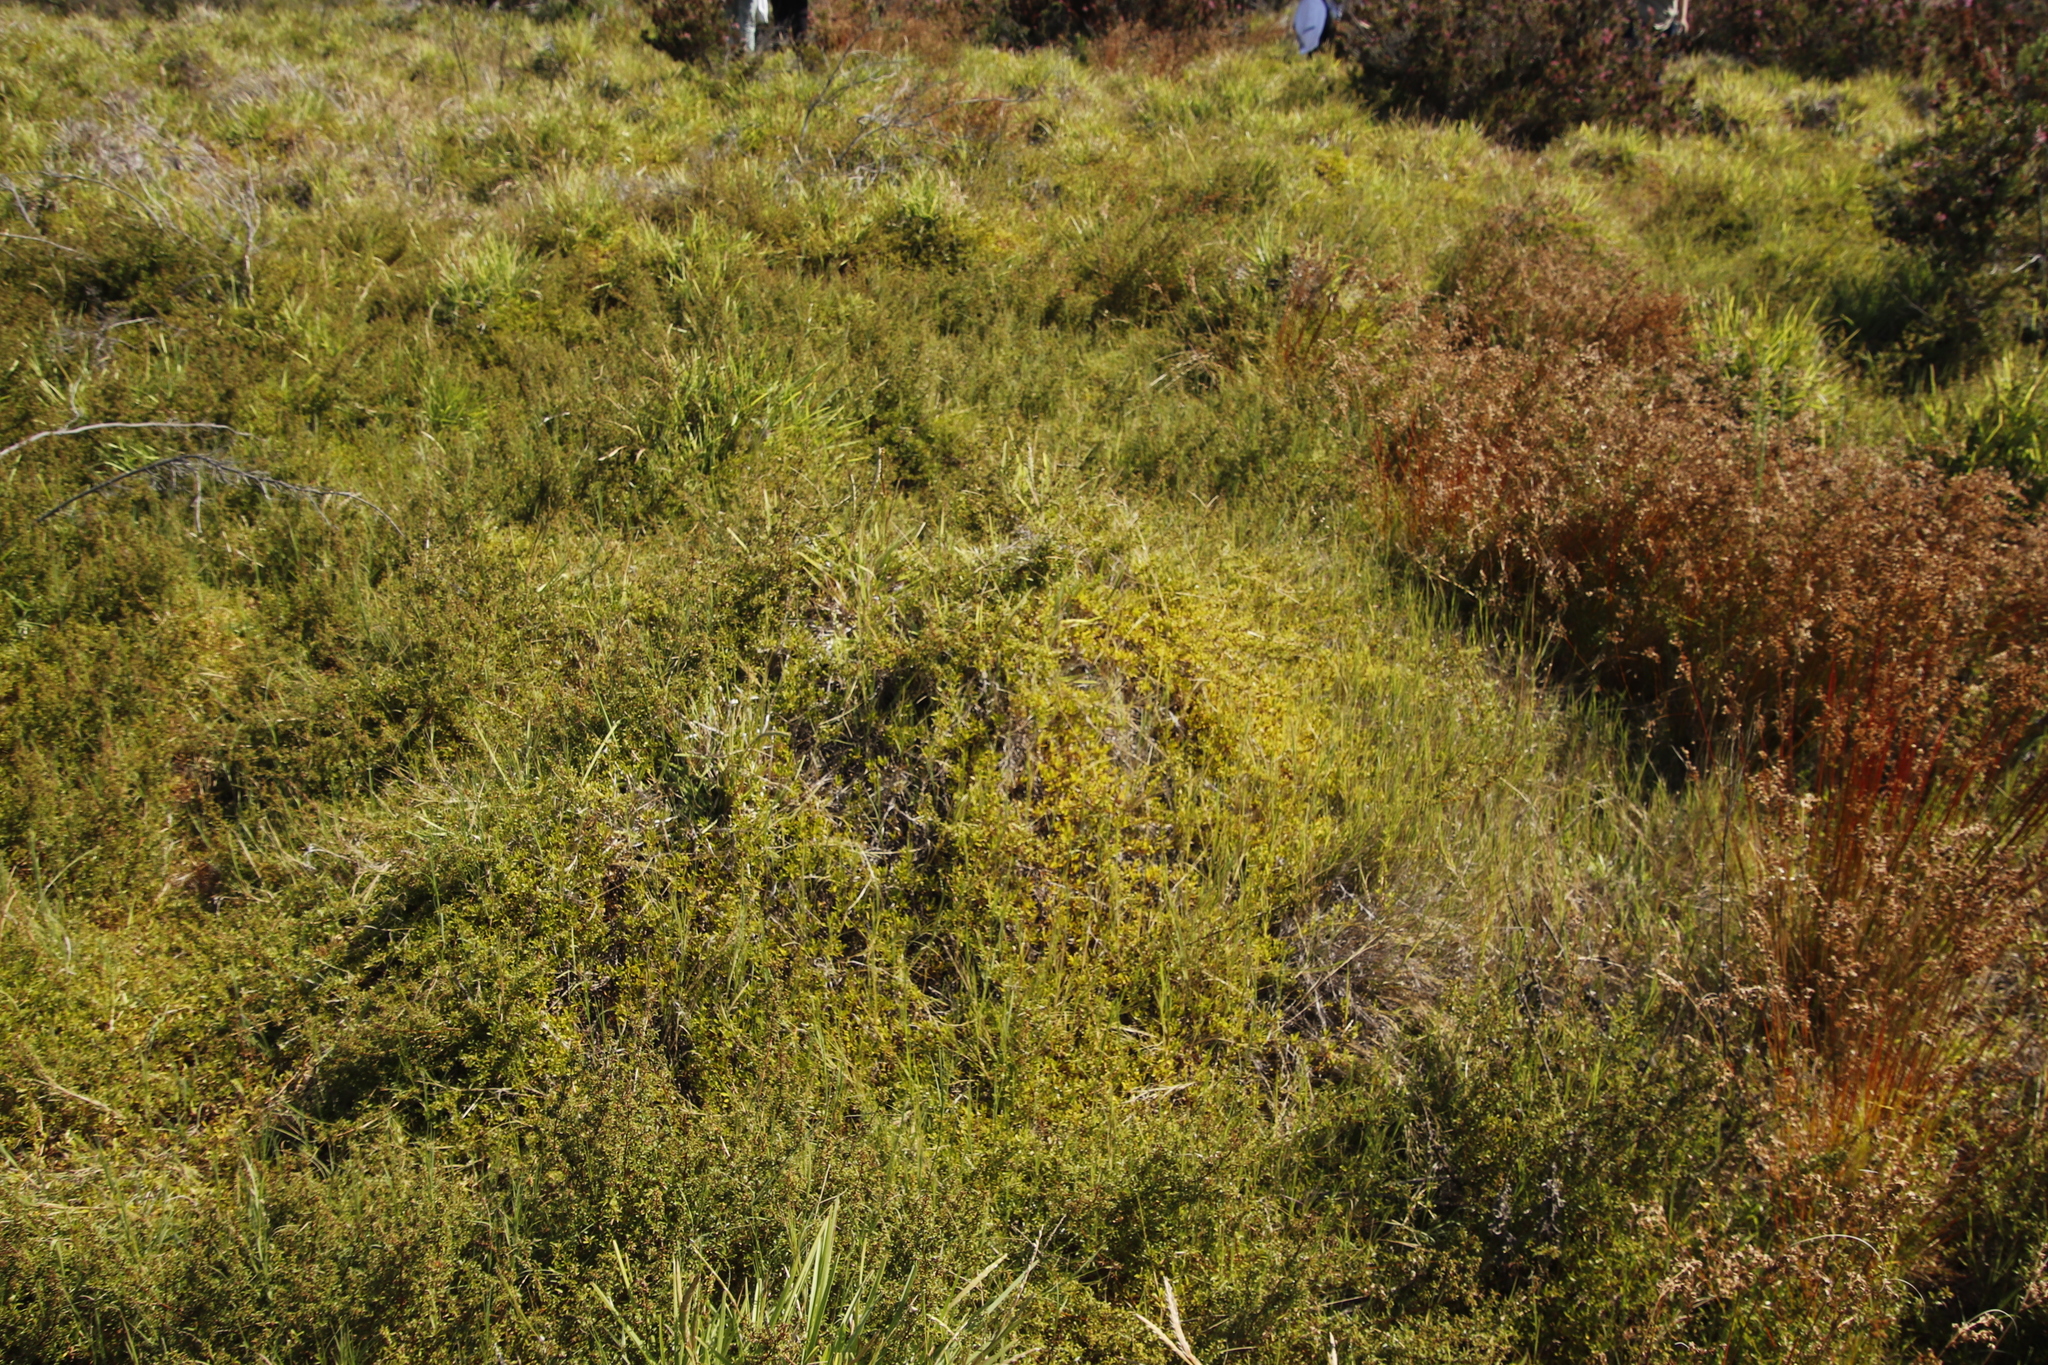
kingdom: Plantae
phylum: Tracheophyta
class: Magnoliopsida
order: Rosales
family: Rosaceae
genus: Cliffortia
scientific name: Cliffortia ferruginea
